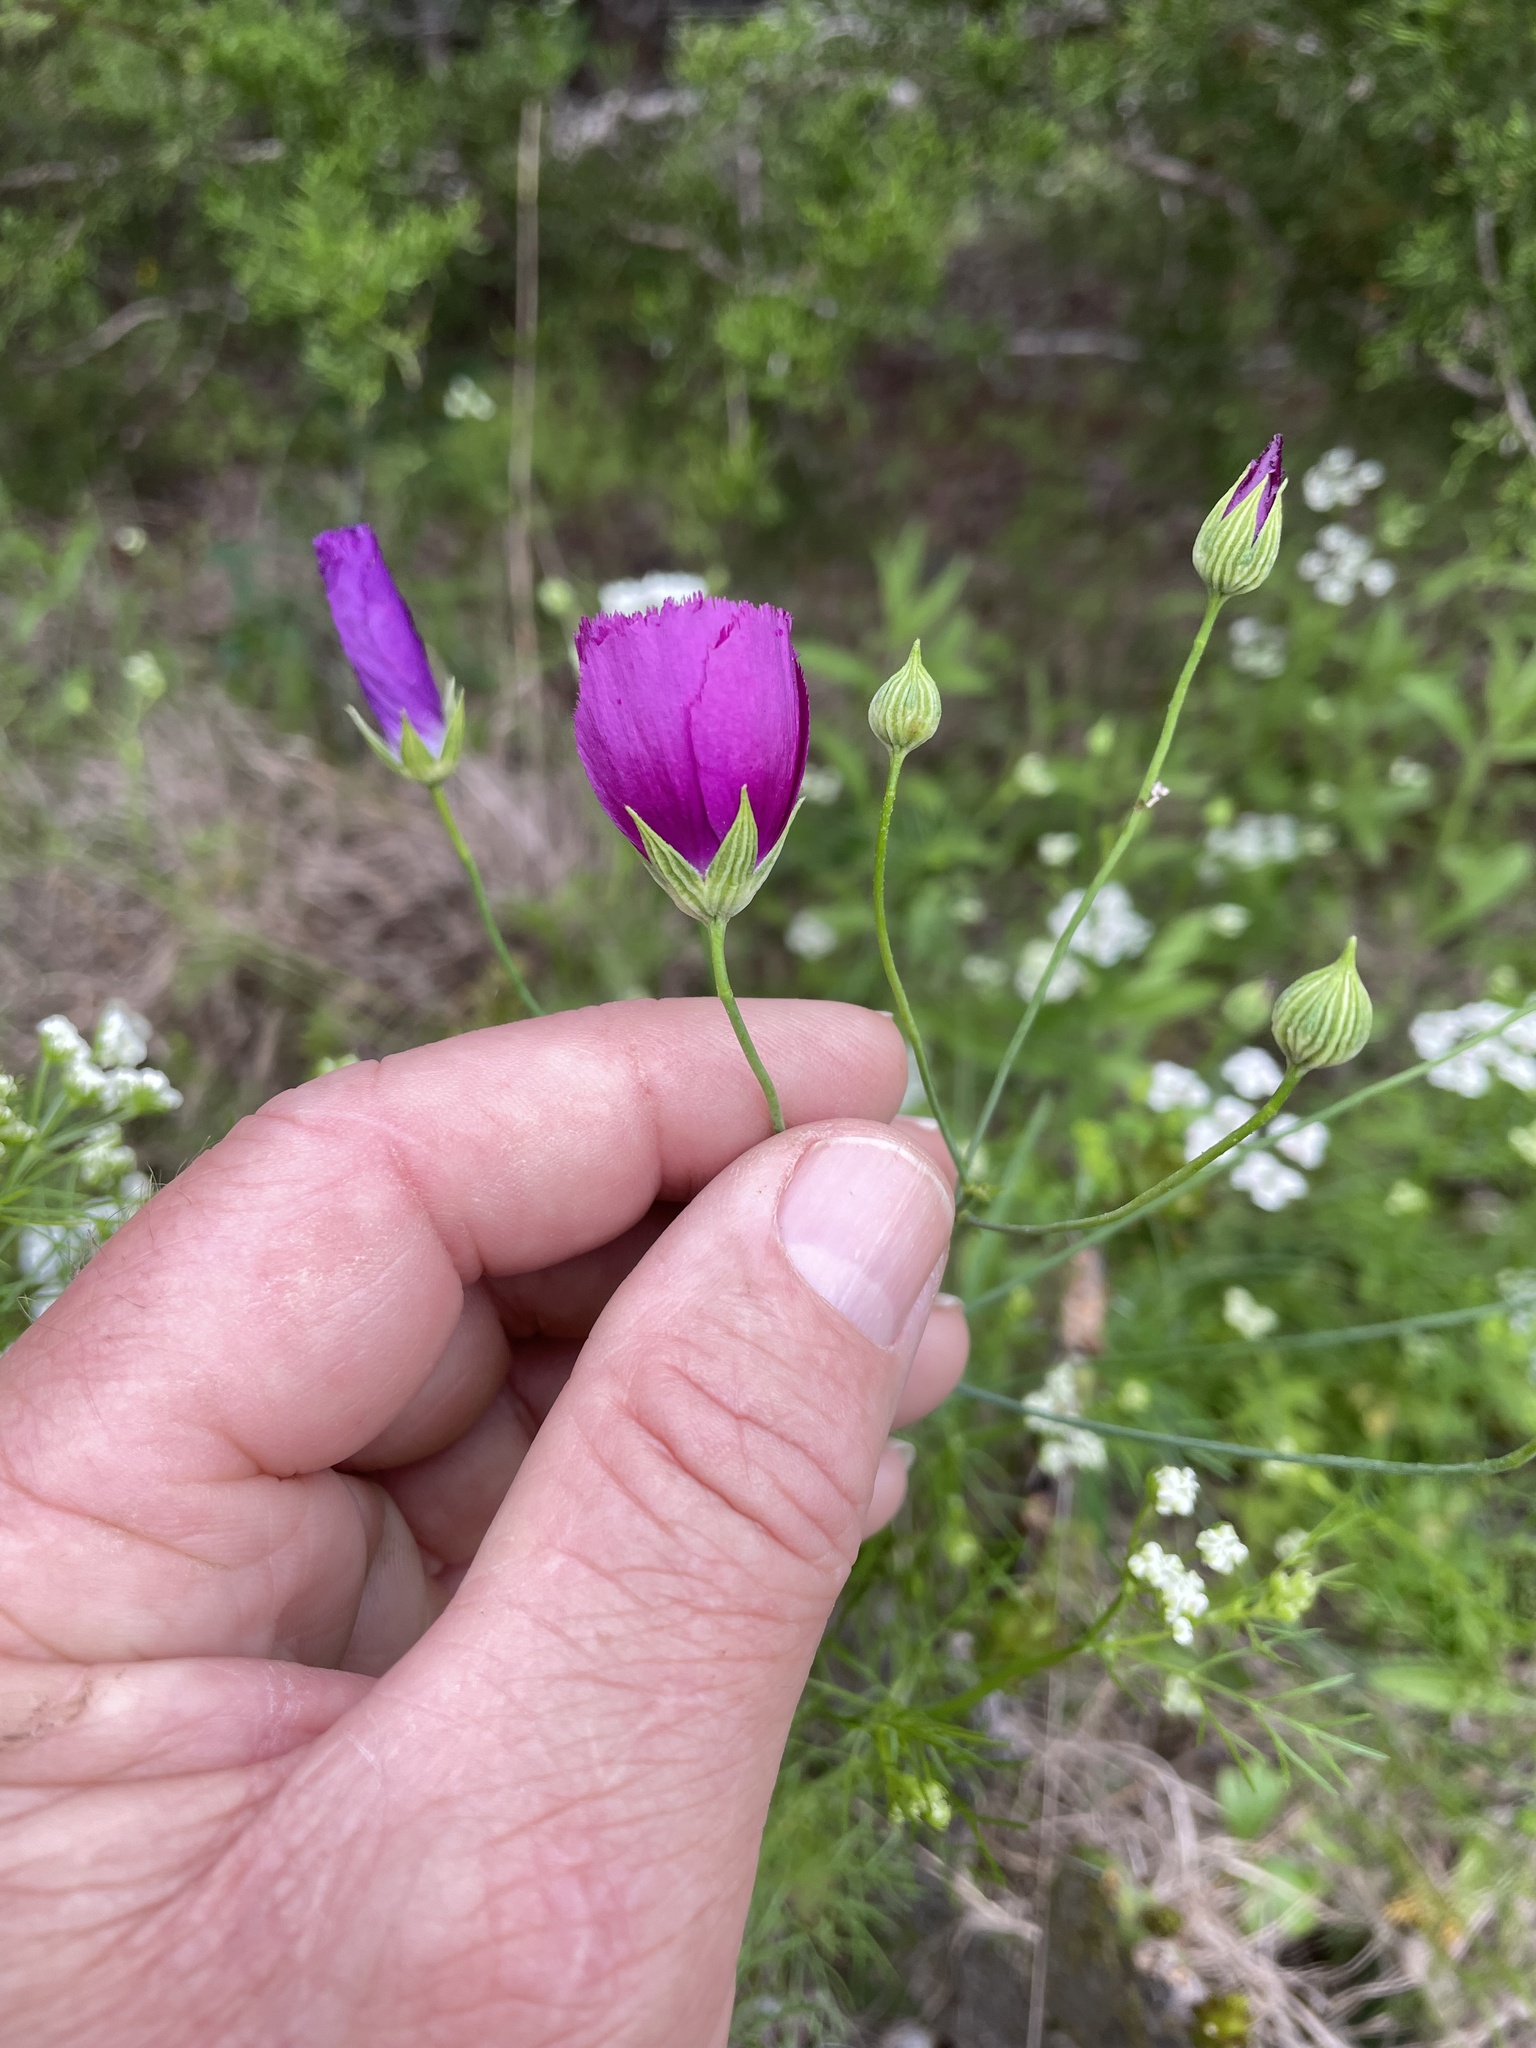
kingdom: Plantae
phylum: Tracheophyta
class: Magnoliopsida
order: Malvales
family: Malvaceae
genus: Callirhoe
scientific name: Callirhoe pedata
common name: Finger poppy-mallow
